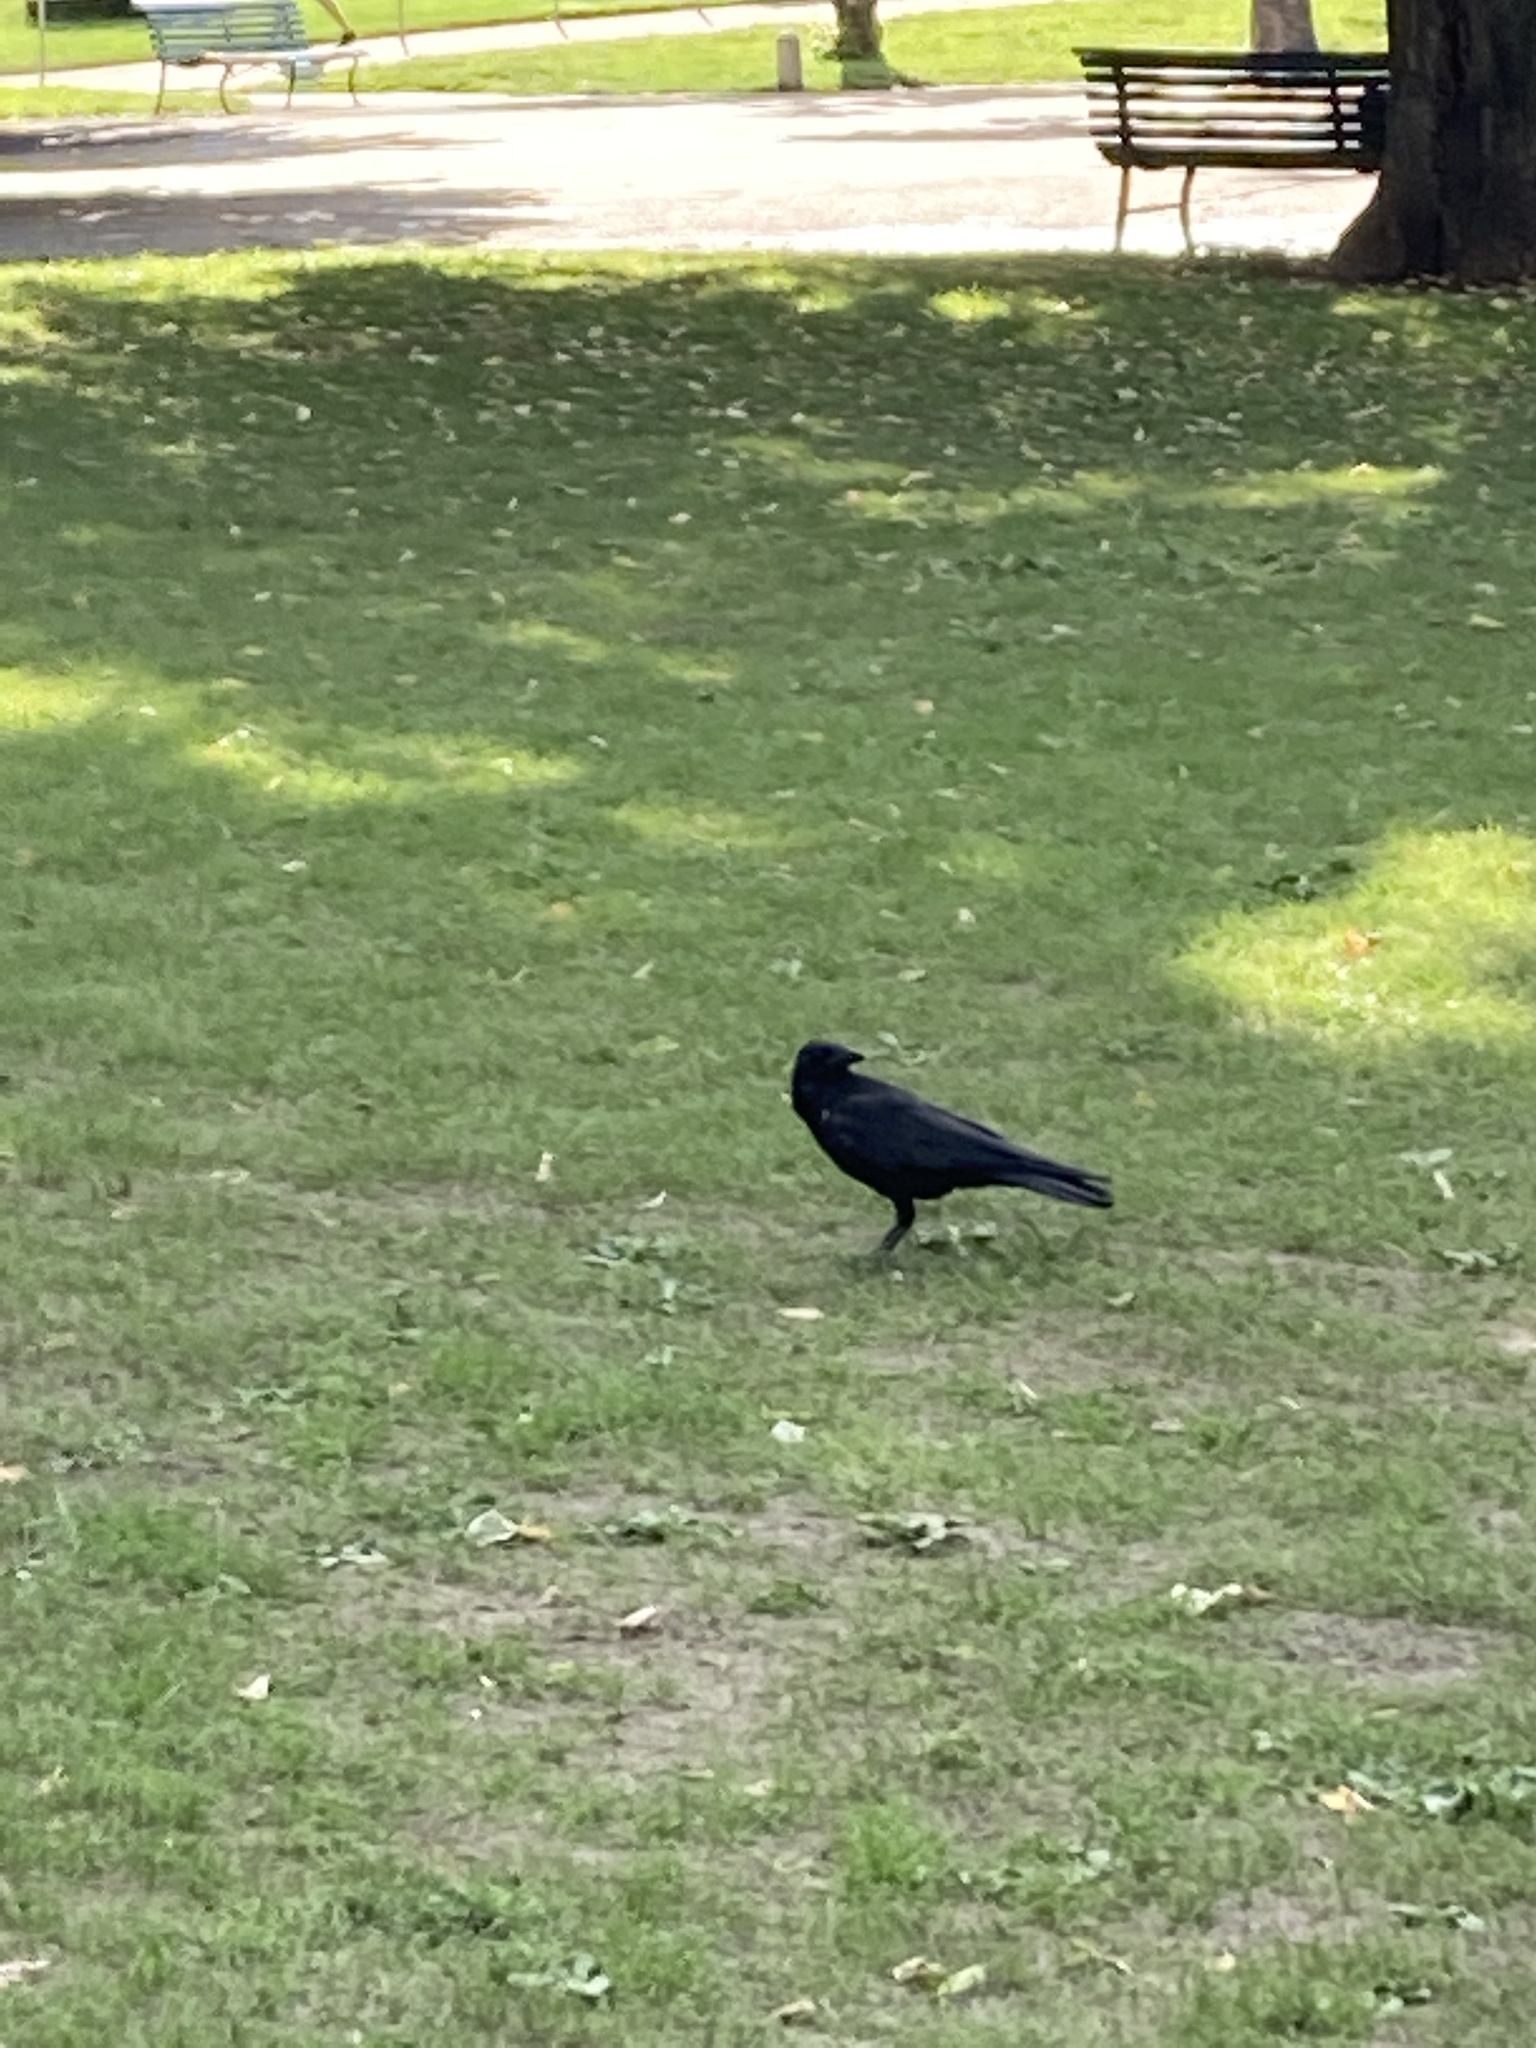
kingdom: Animalia
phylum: Chordata
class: Aves
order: Passeriformes
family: Corvidae
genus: Corvus
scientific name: Corvus corone
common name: Carrion crow
